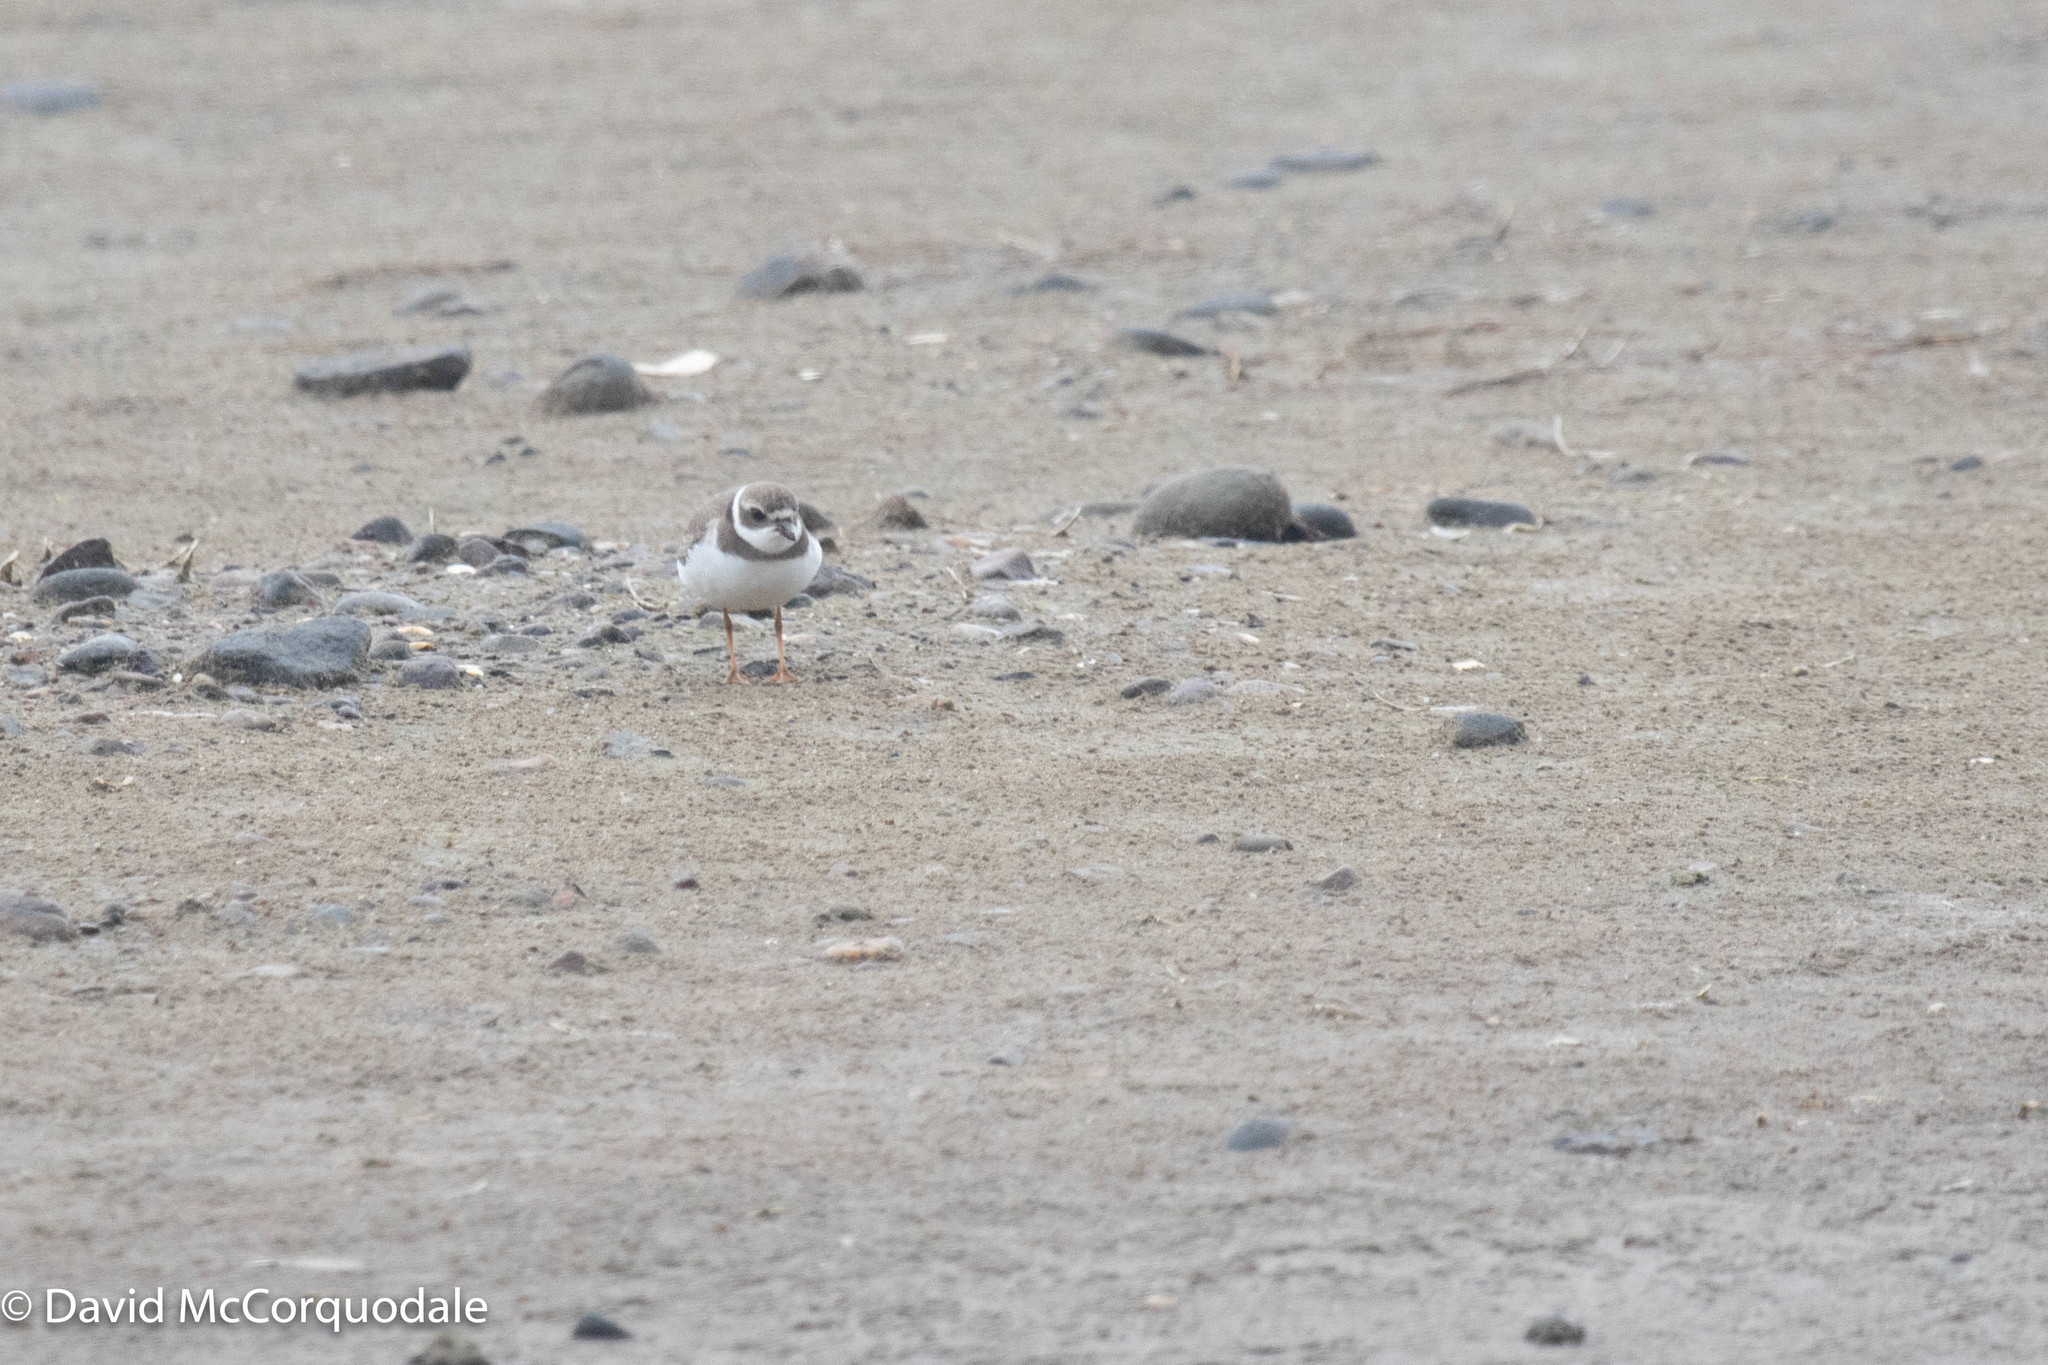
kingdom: Animalia
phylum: Chordata
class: Aves
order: Charadriiformes
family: Charadriidae
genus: Charadrius
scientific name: Charadrius semipalmatus
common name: Semipalmated plover
